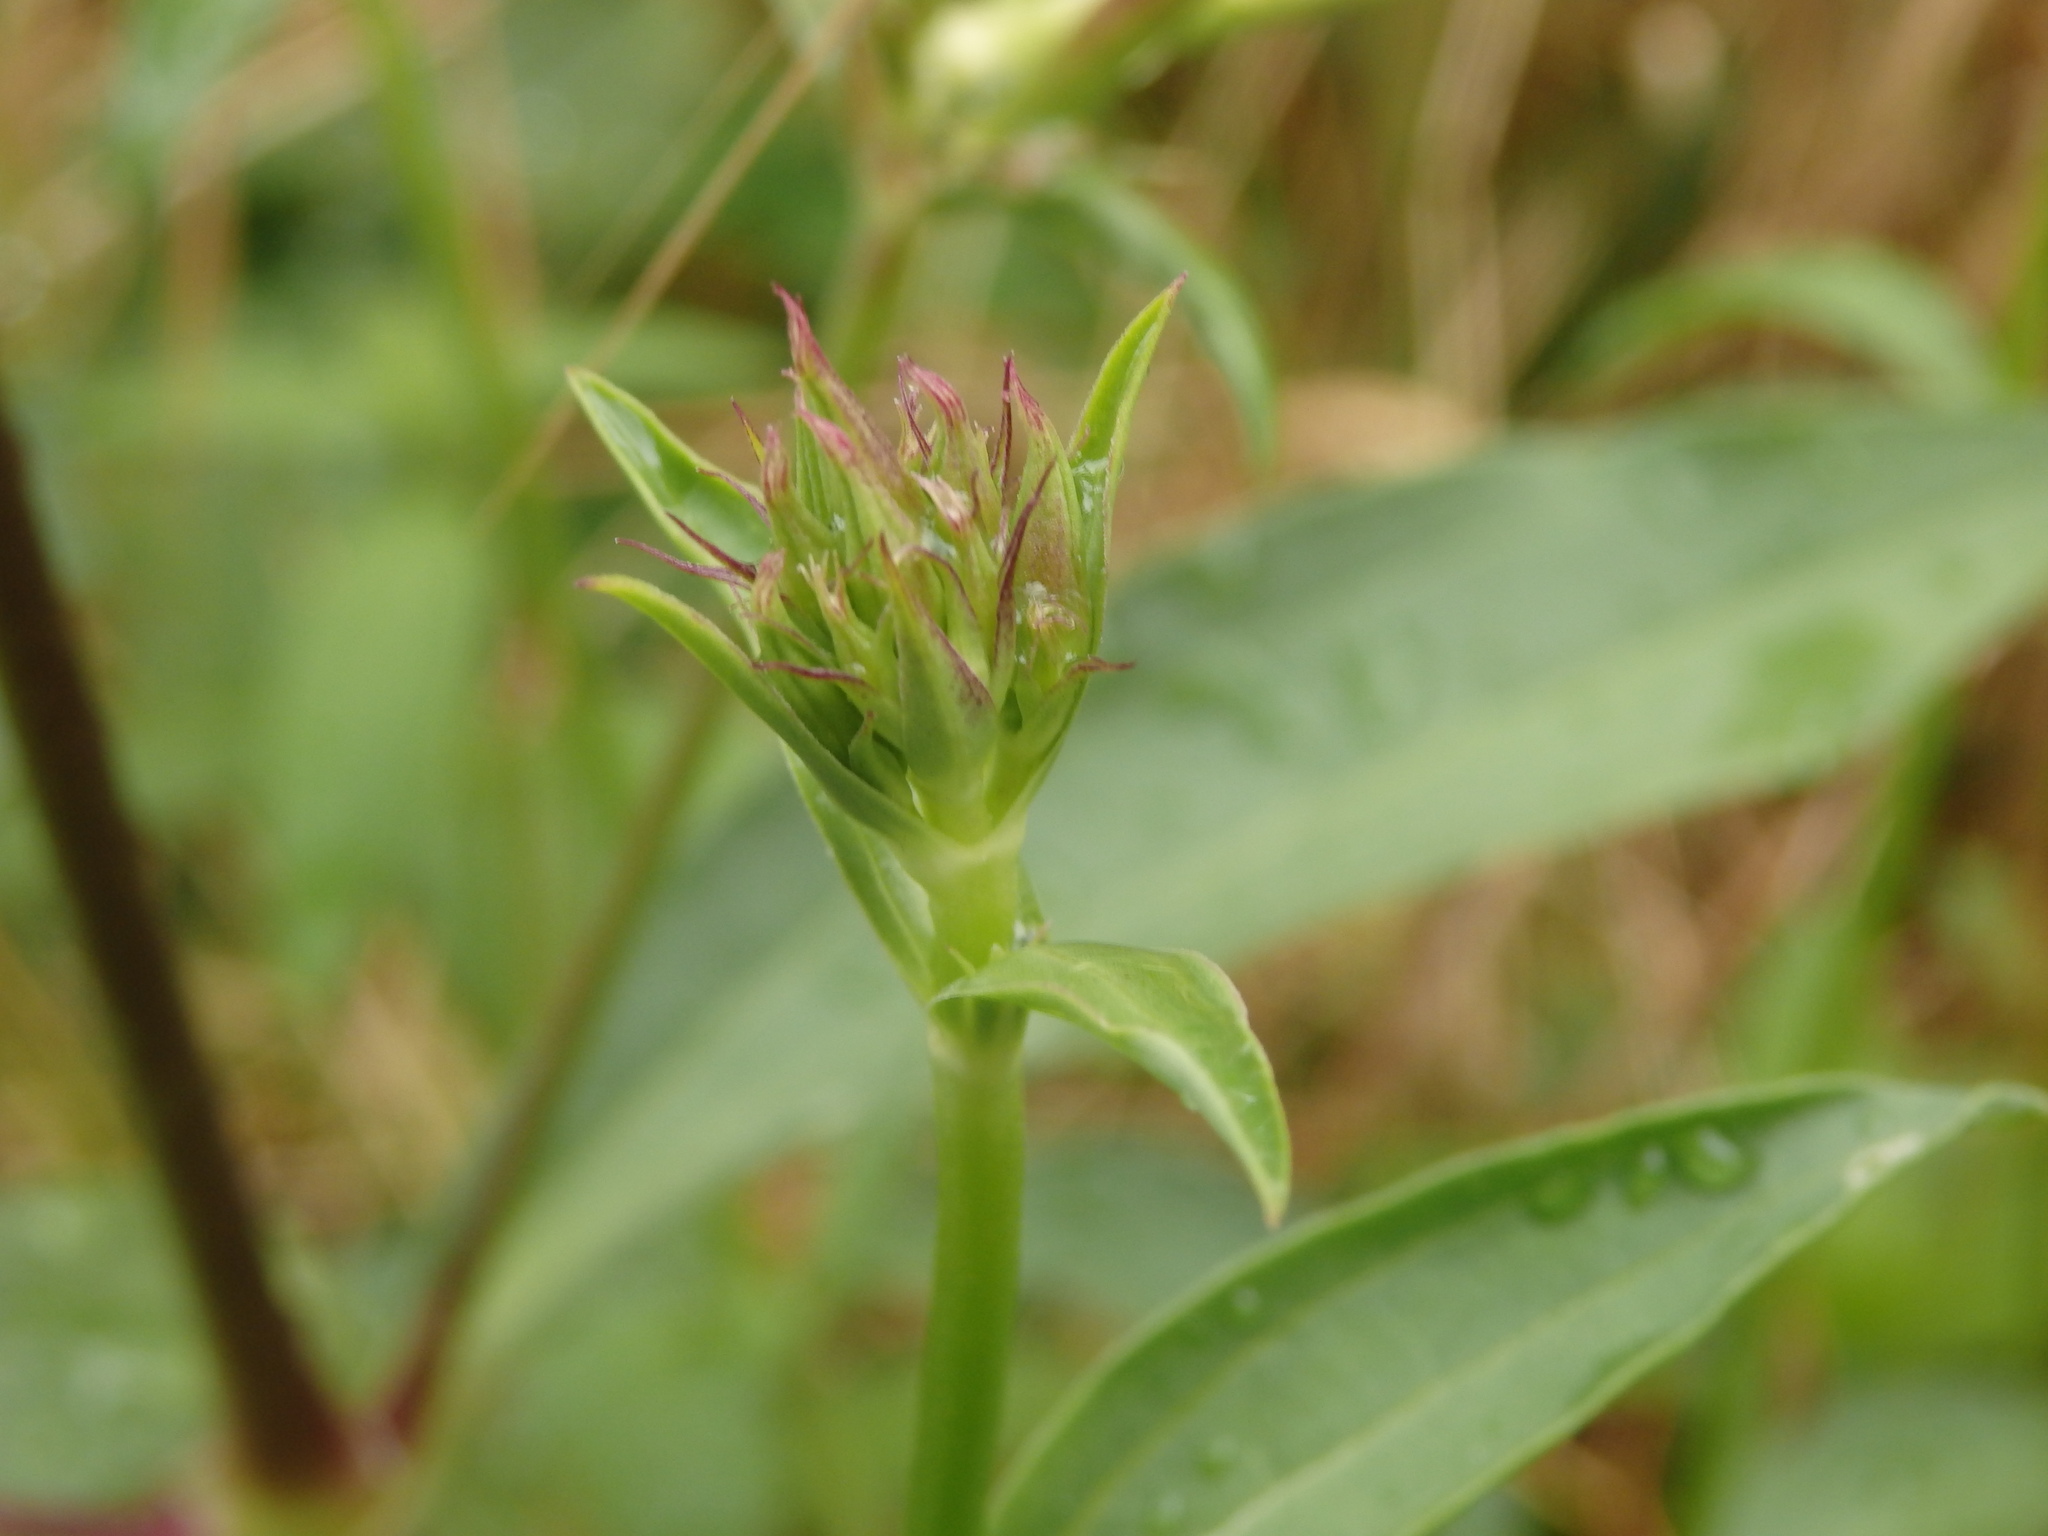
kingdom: Plantae
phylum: Tracheophyta
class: Magnoliopsida
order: Caryophyllales
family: Caryophyllaceae
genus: Saponaria
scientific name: Saponaria officinalis
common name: Soapwort
